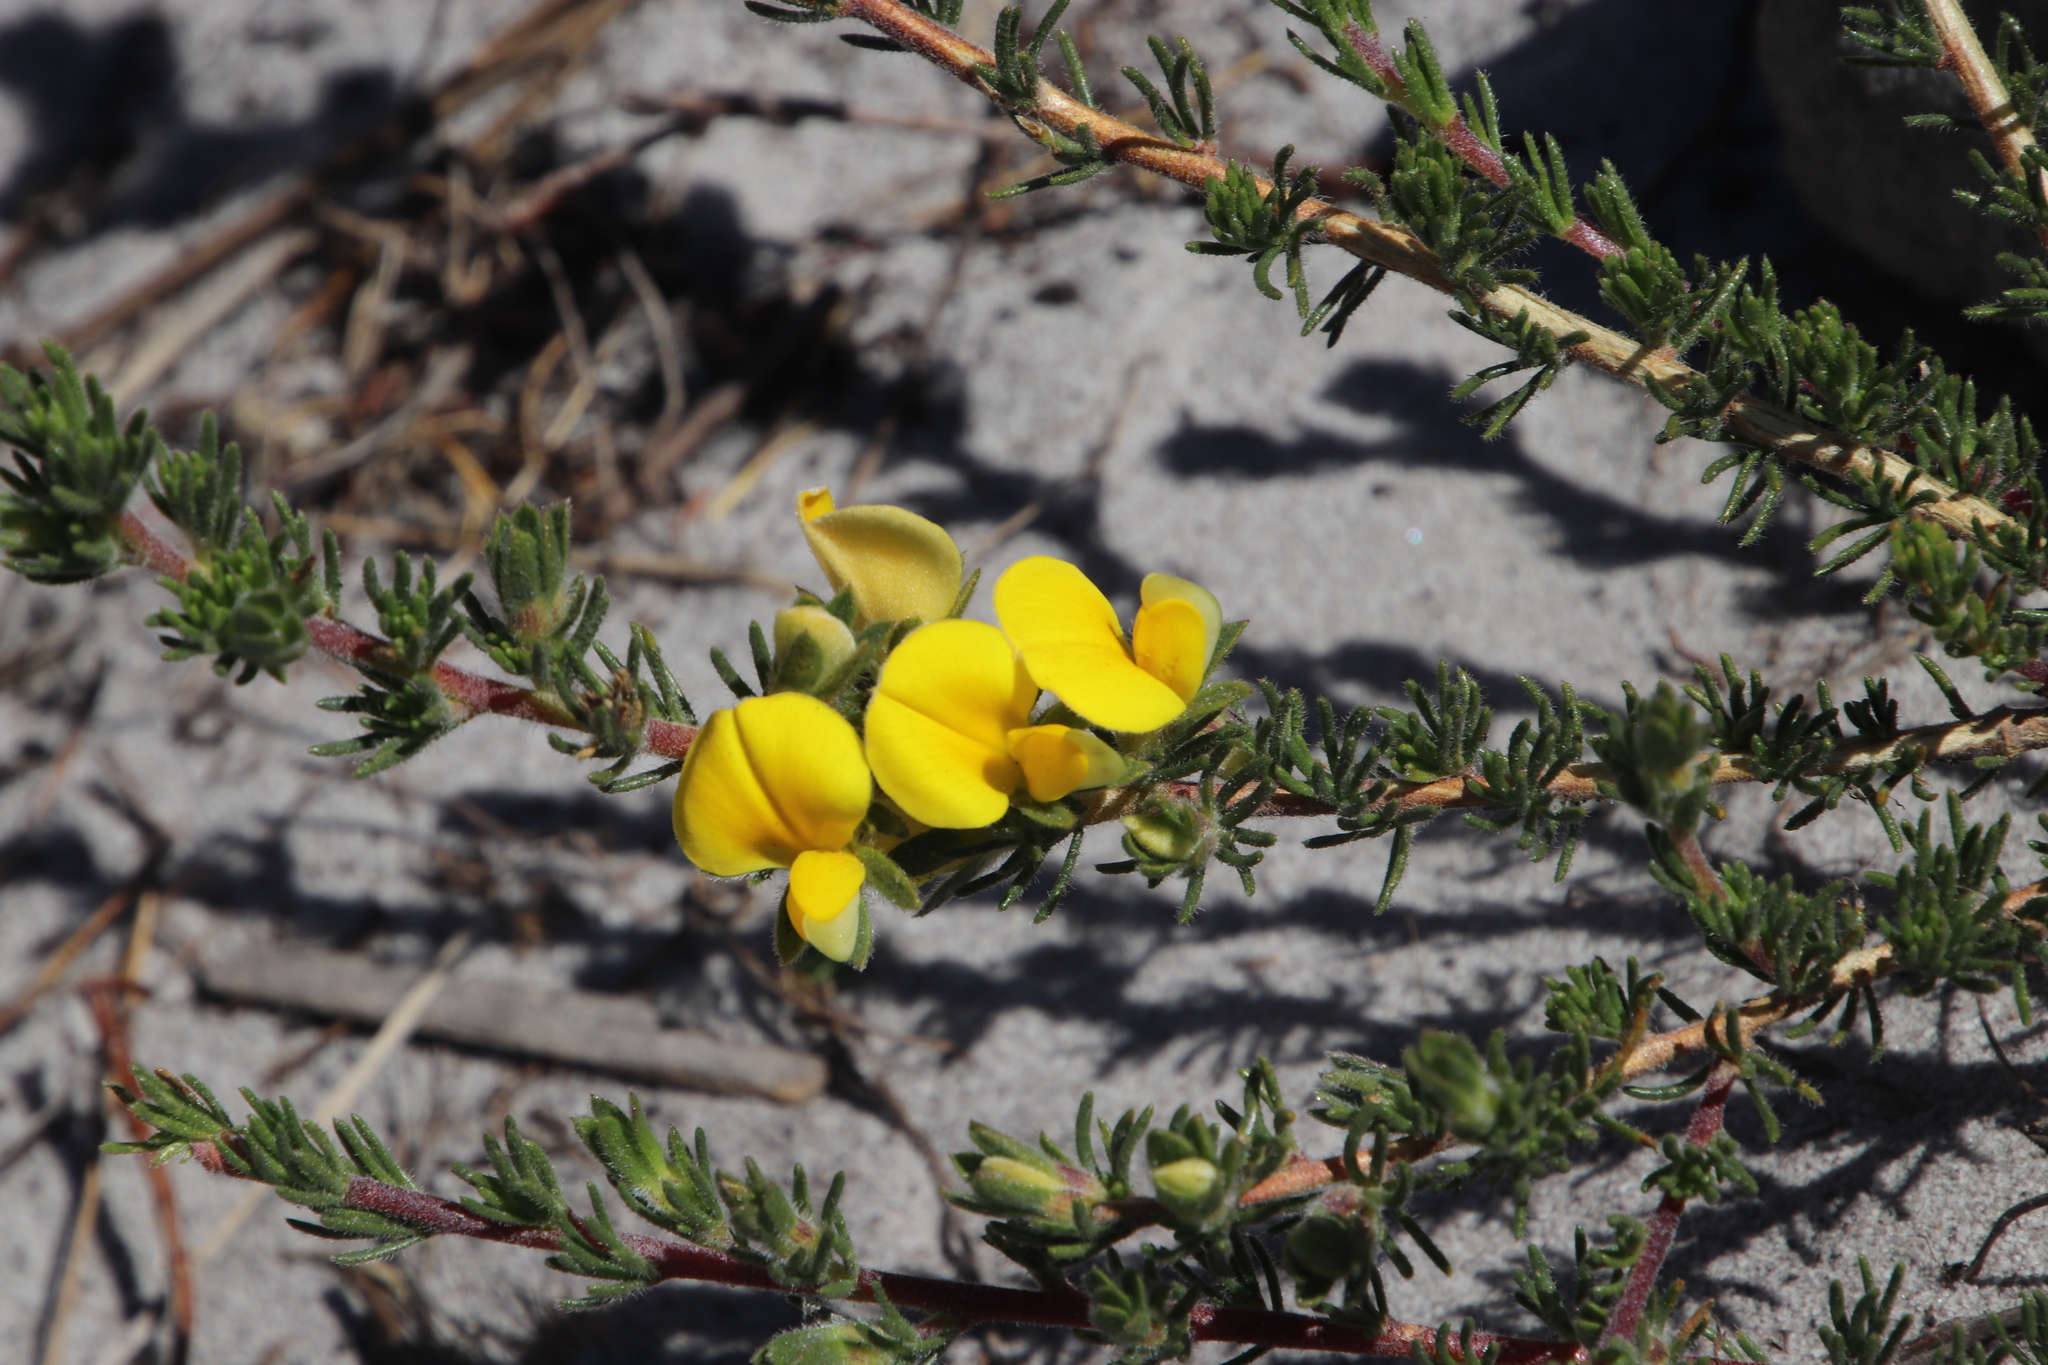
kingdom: Plantae
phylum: Tracheophyta
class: Magnoliopsida
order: Fabales
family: Fabaceae
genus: Aspalathus
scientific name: Aspalathus linguiloba
